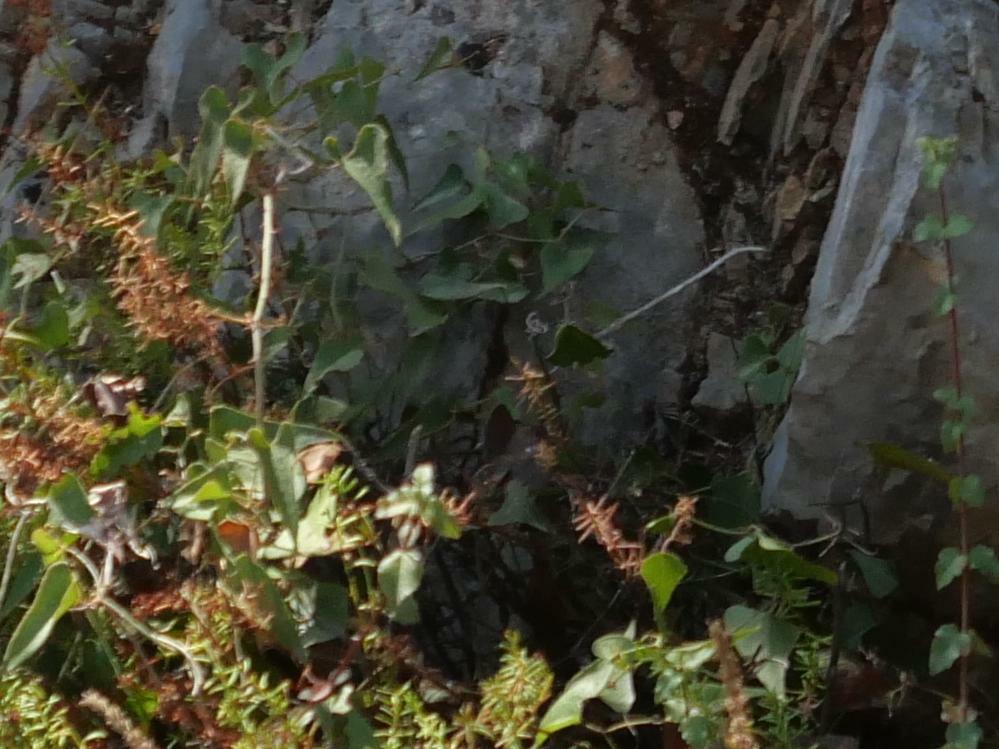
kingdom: Plantae
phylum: Tracheophyta
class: Liliopsida
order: Liliales
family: Smilacaceae
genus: Smilax
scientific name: Smilax aspera
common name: Common smilax
